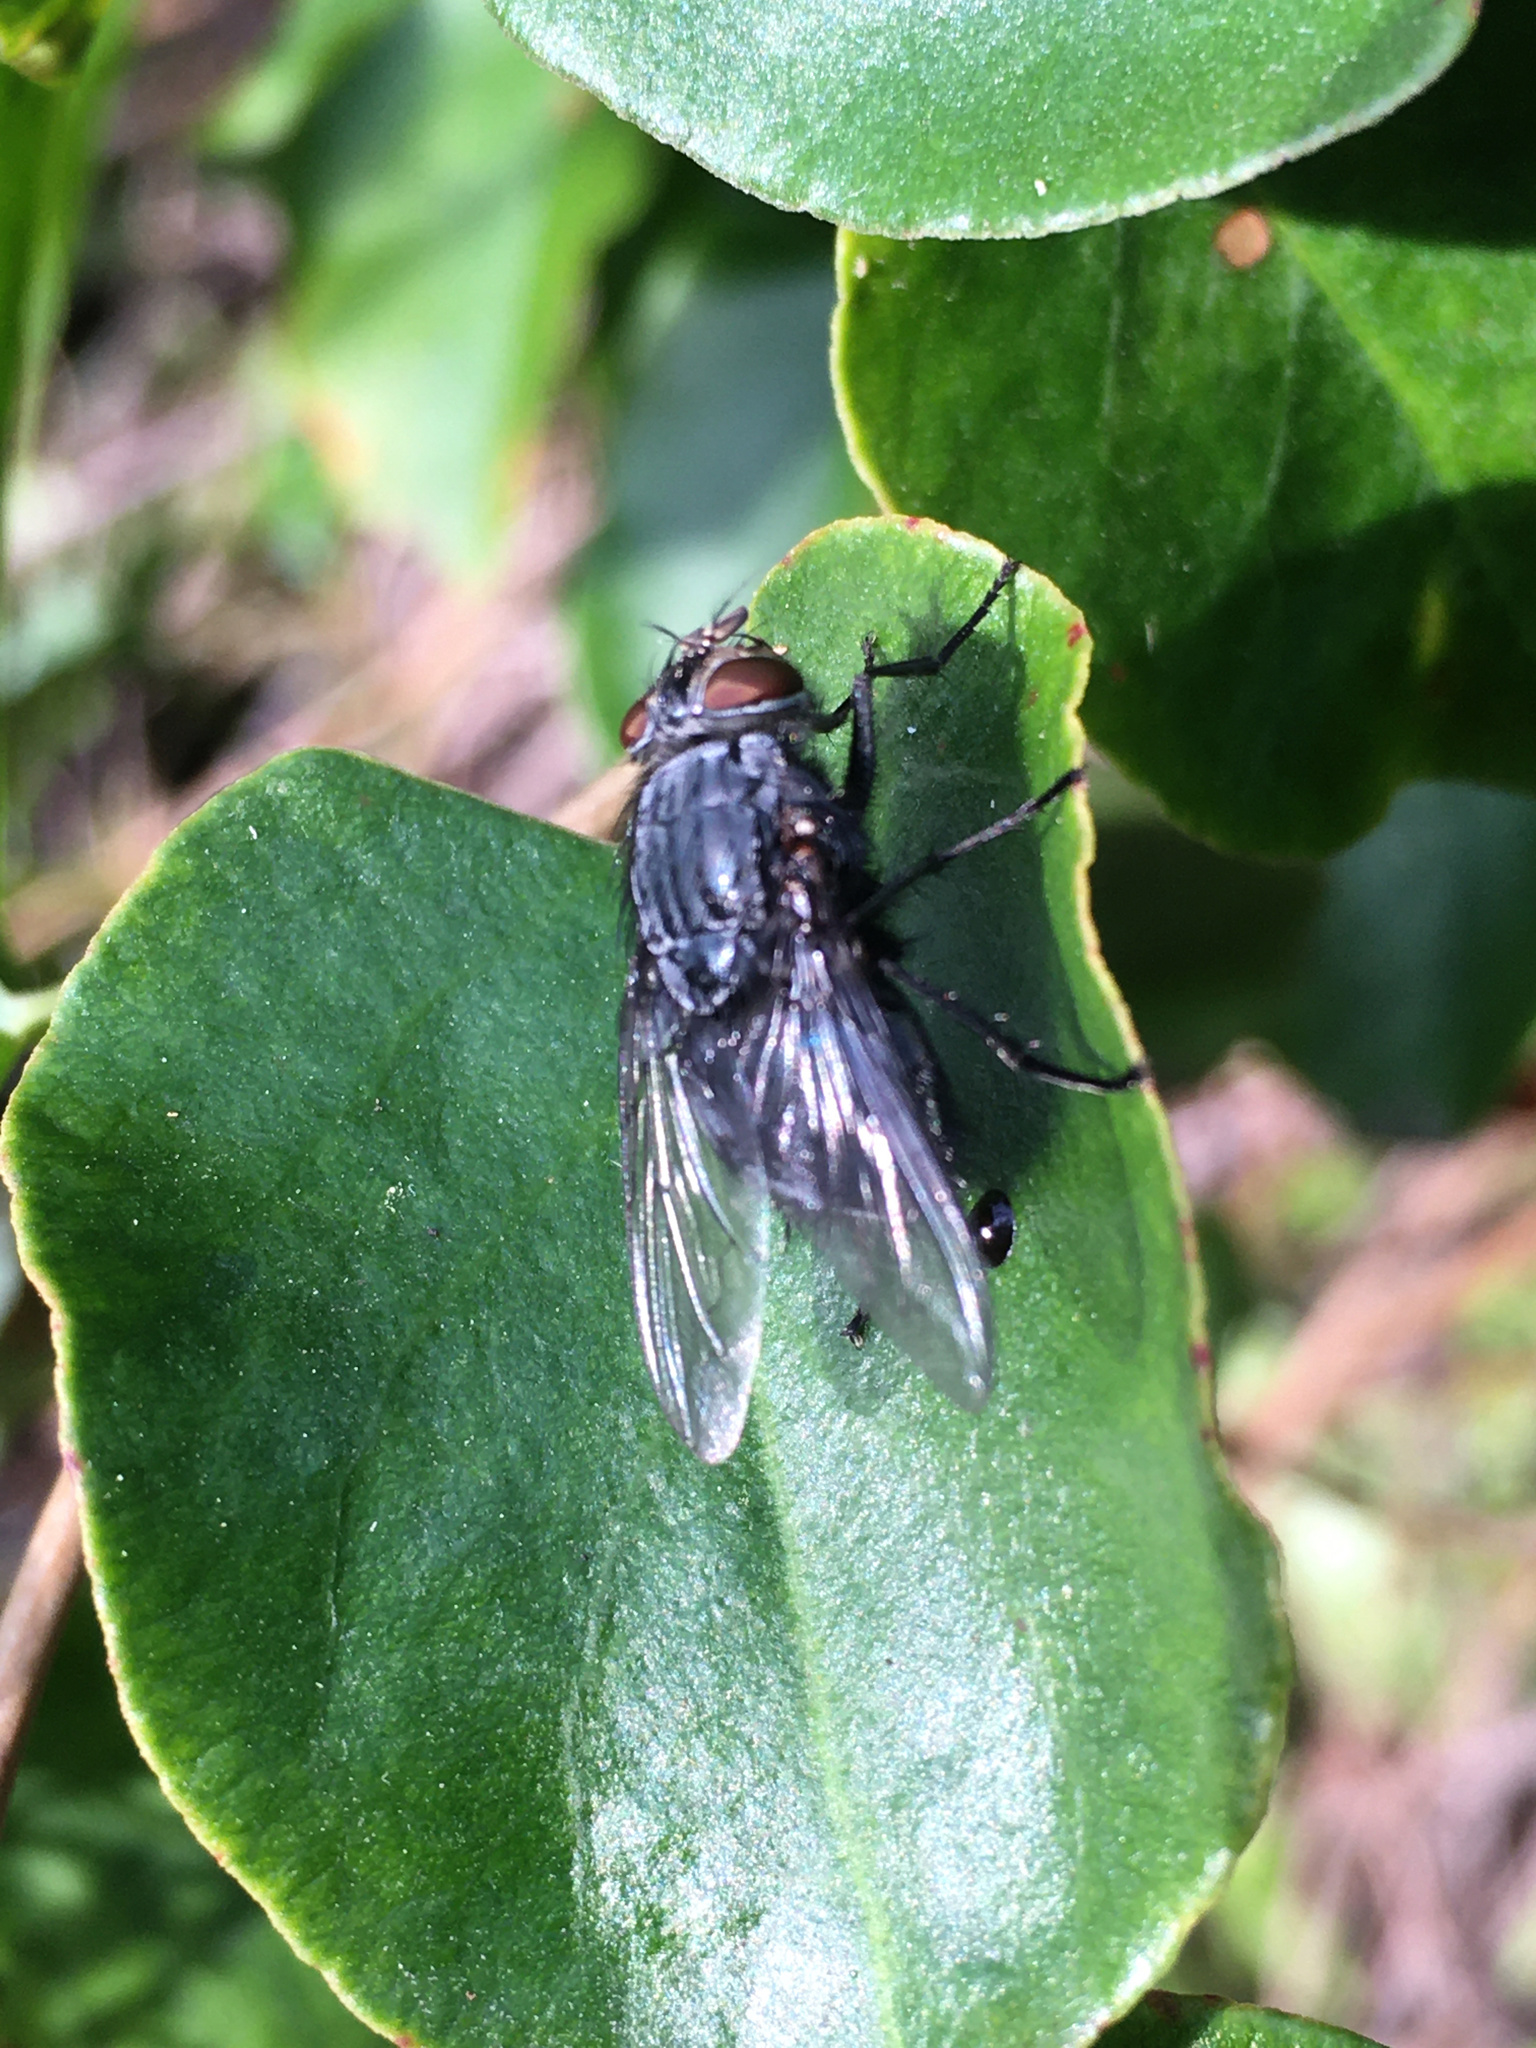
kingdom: Animalia
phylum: Arthropoda
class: Insecta
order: Diptera
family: Calliphoridae
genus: Calliphora
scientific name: Calliphora vicina
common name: Common blow flie
